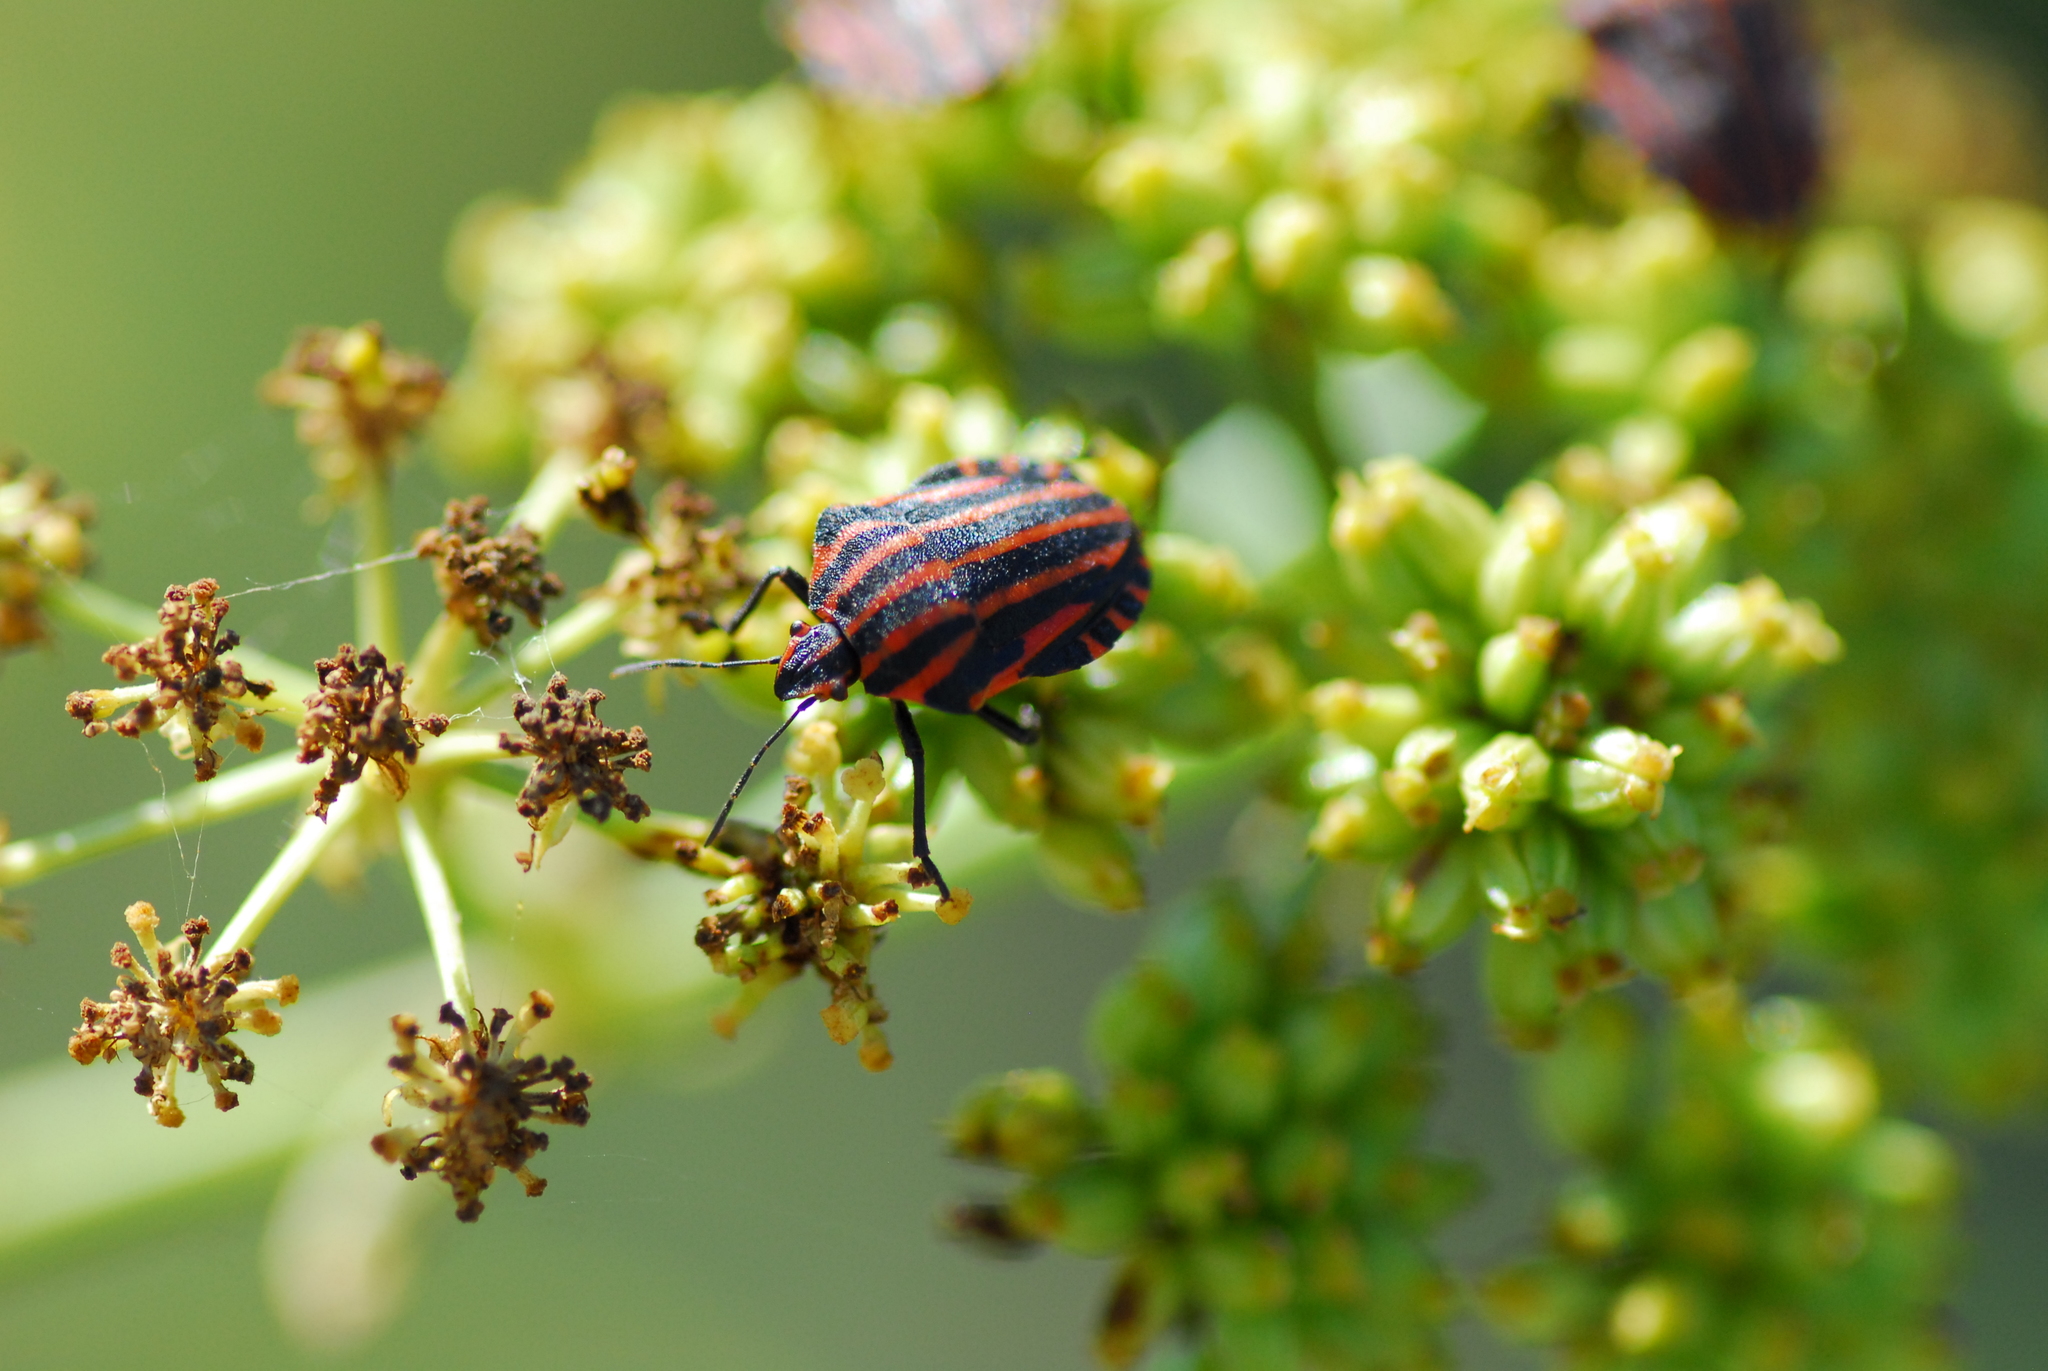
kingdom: Animalia
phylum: Arthropoda
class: Insecta
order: Hemiptera
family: Pentatomidae
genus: Graphosoma
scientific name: Graphosoma italicum
